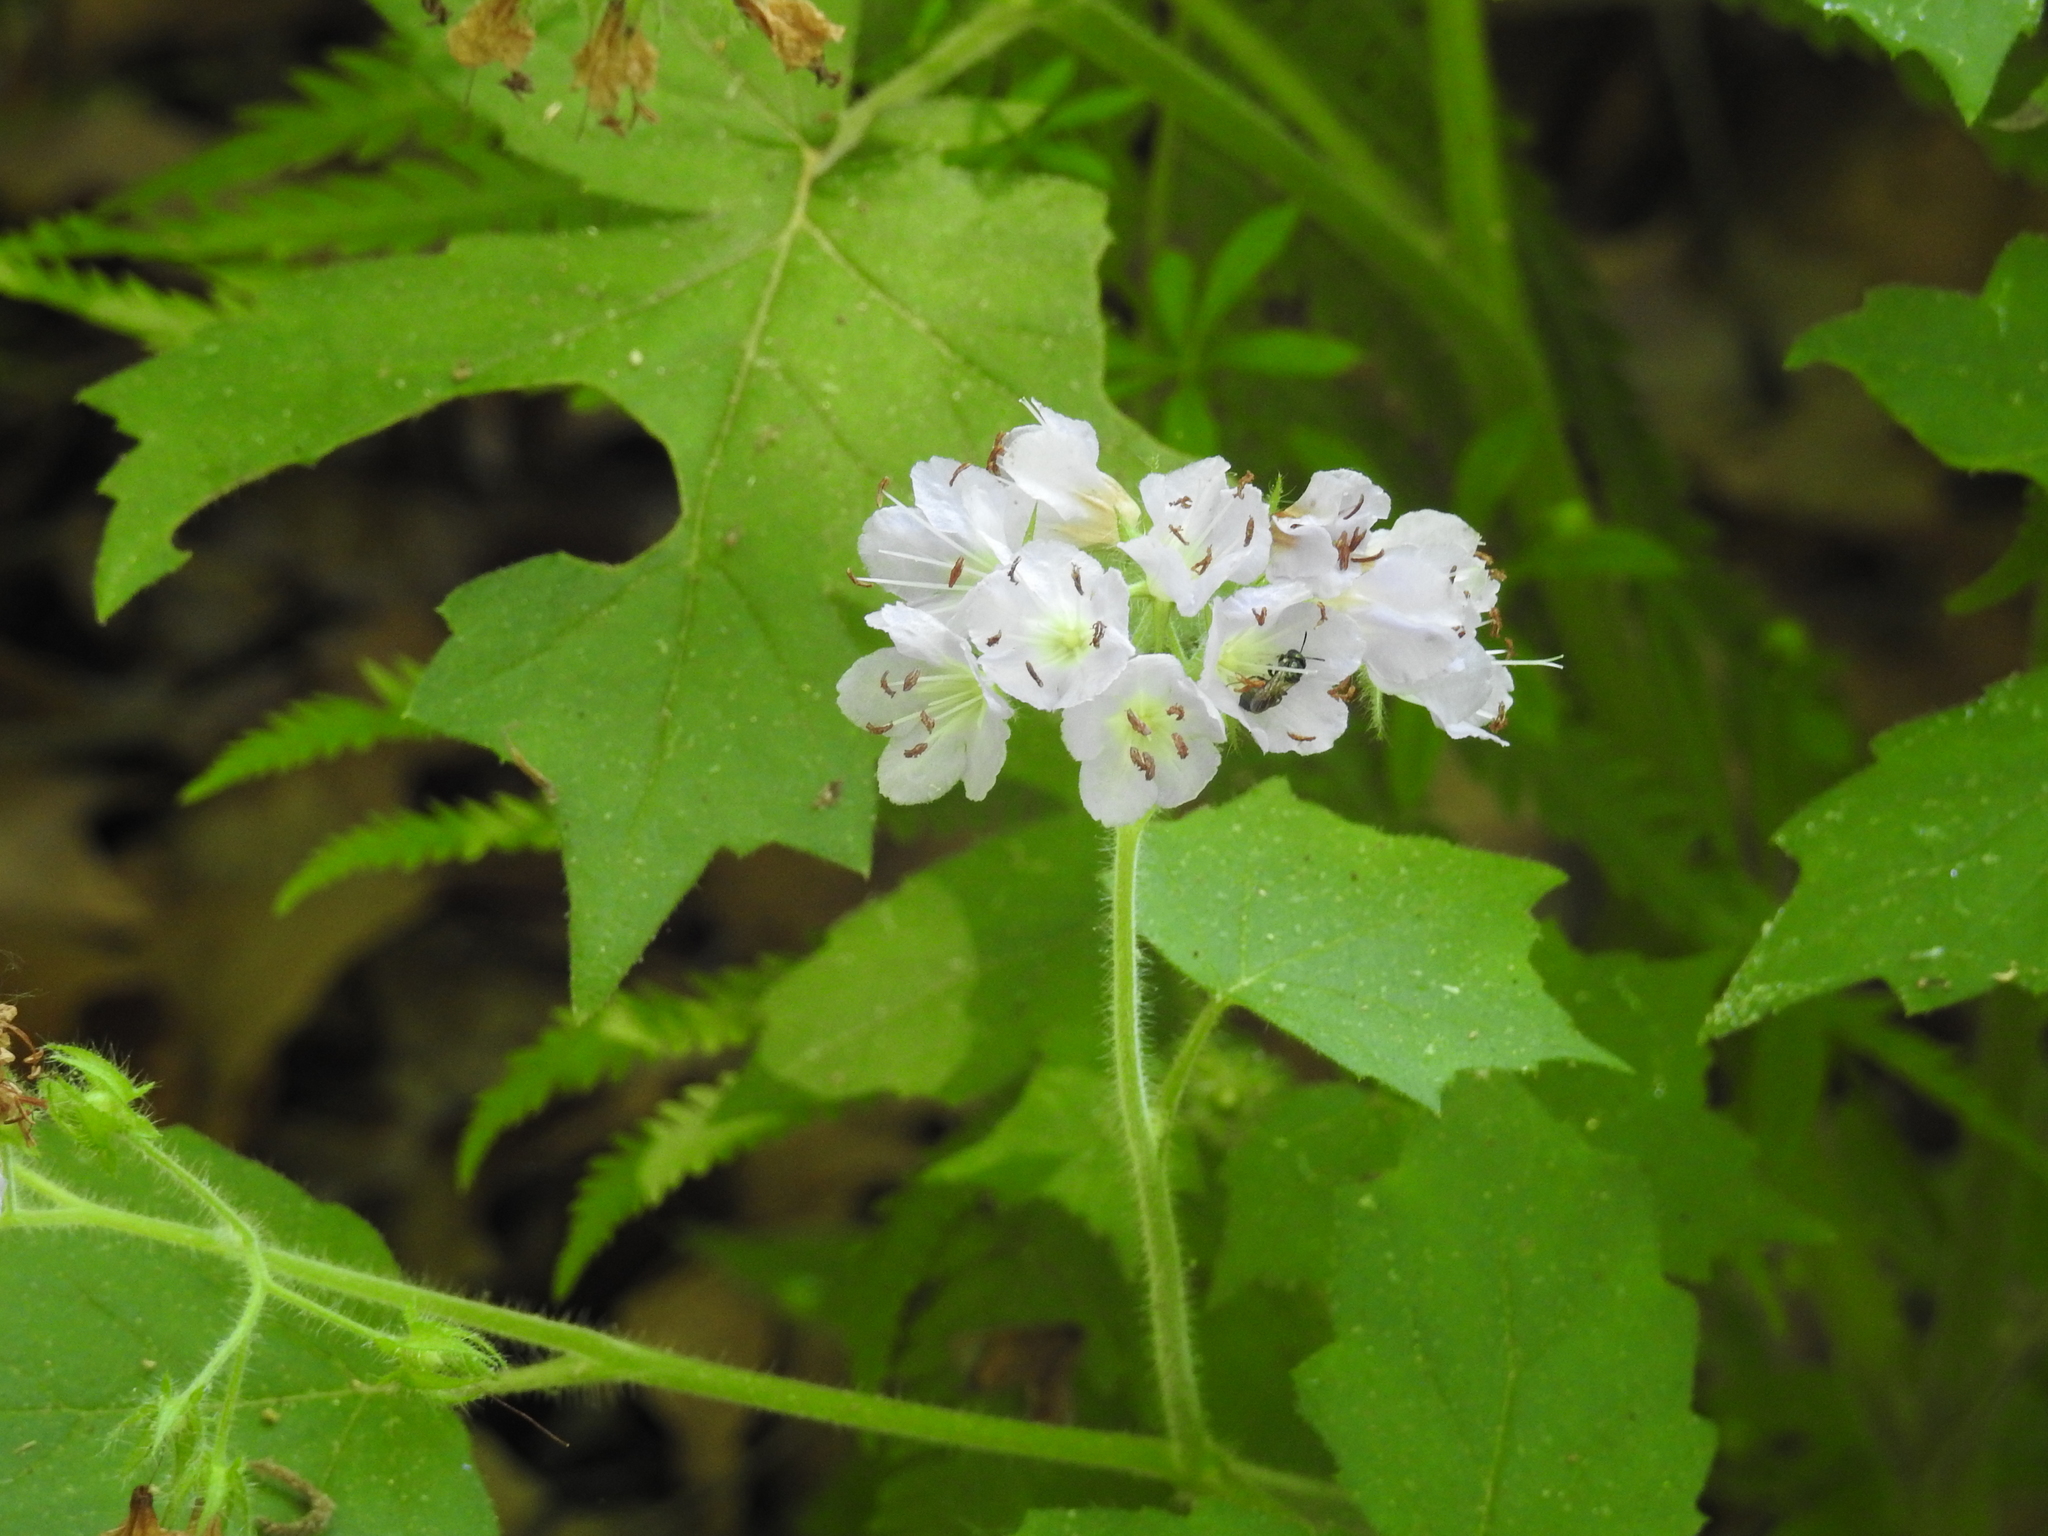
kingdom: Plantae
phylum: Tracheophyta
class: Magnoliopsida
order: Boraginales
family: Hydrophyllaceae
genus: Hydrophyllum
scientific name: Hydrophyllum appendiculatum
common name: Appendaged waterleaf
